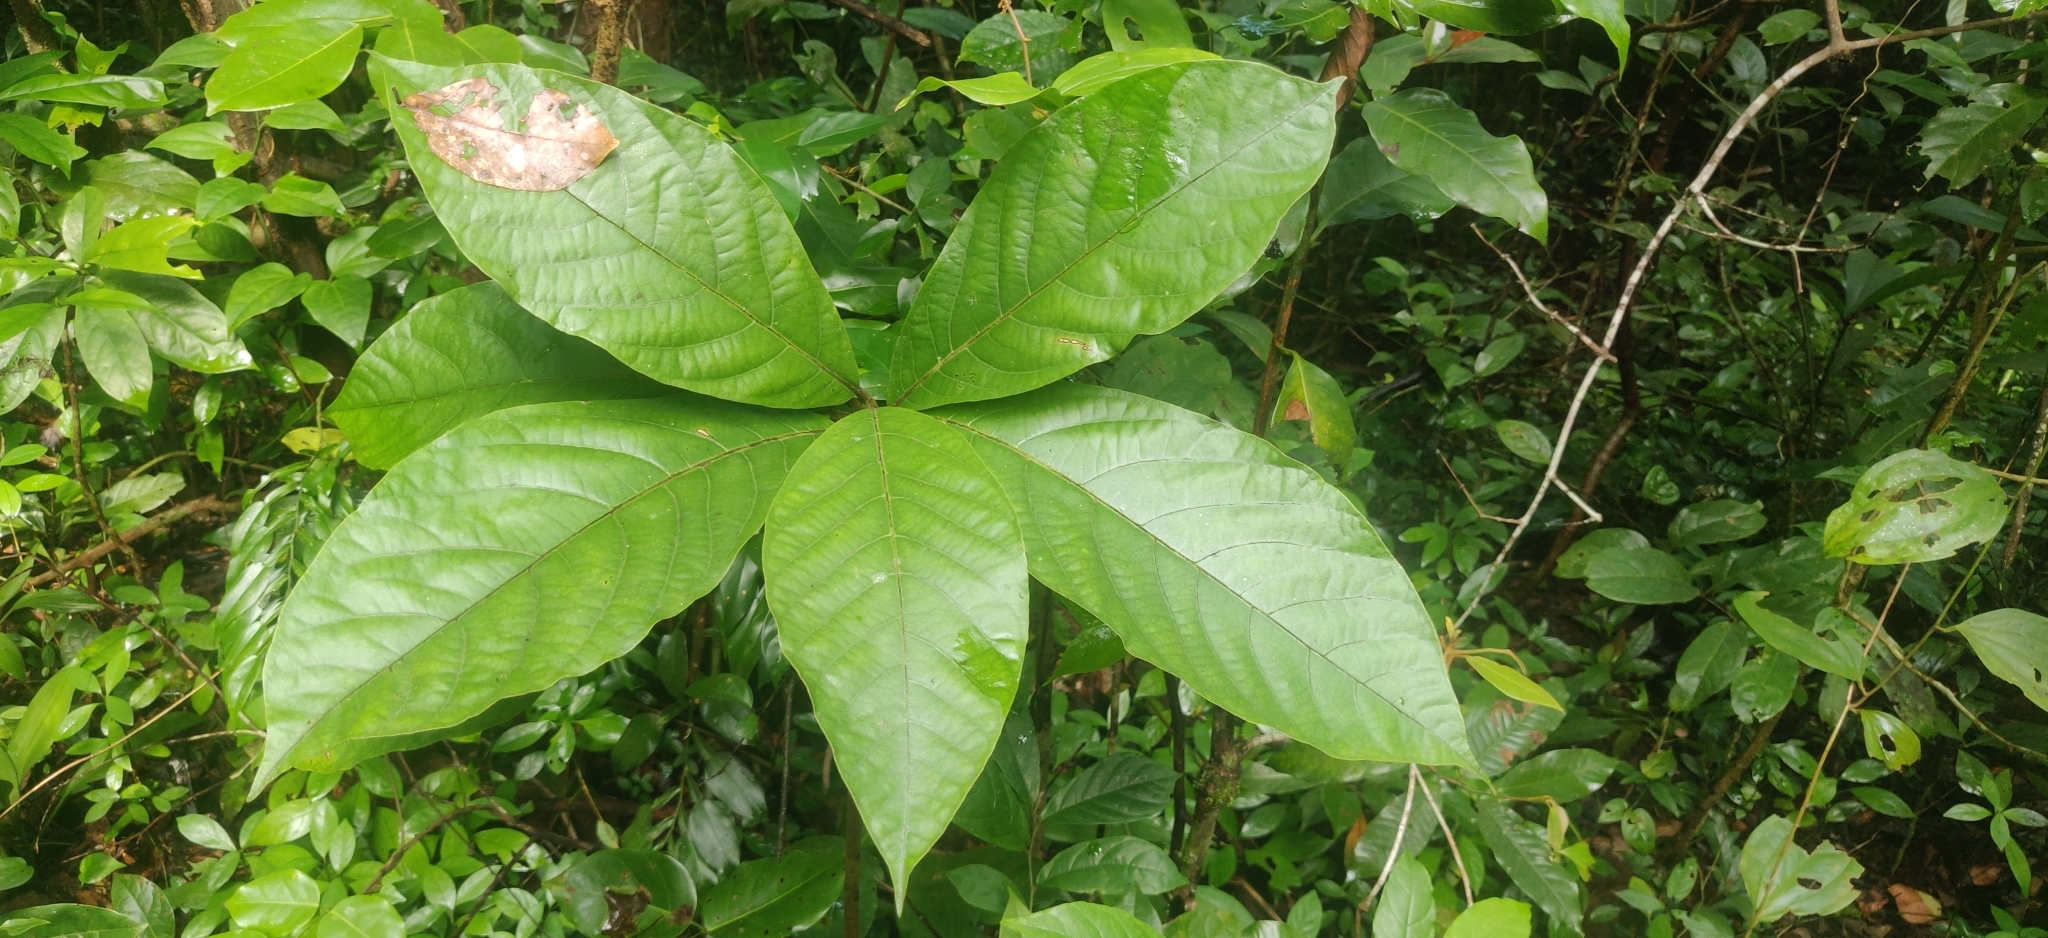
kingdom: Plantae
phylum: Tracheophyta
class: Magnoliopsida
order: Laurales
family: Lauraceae
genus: Litsea
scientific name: Litsea ghatica
